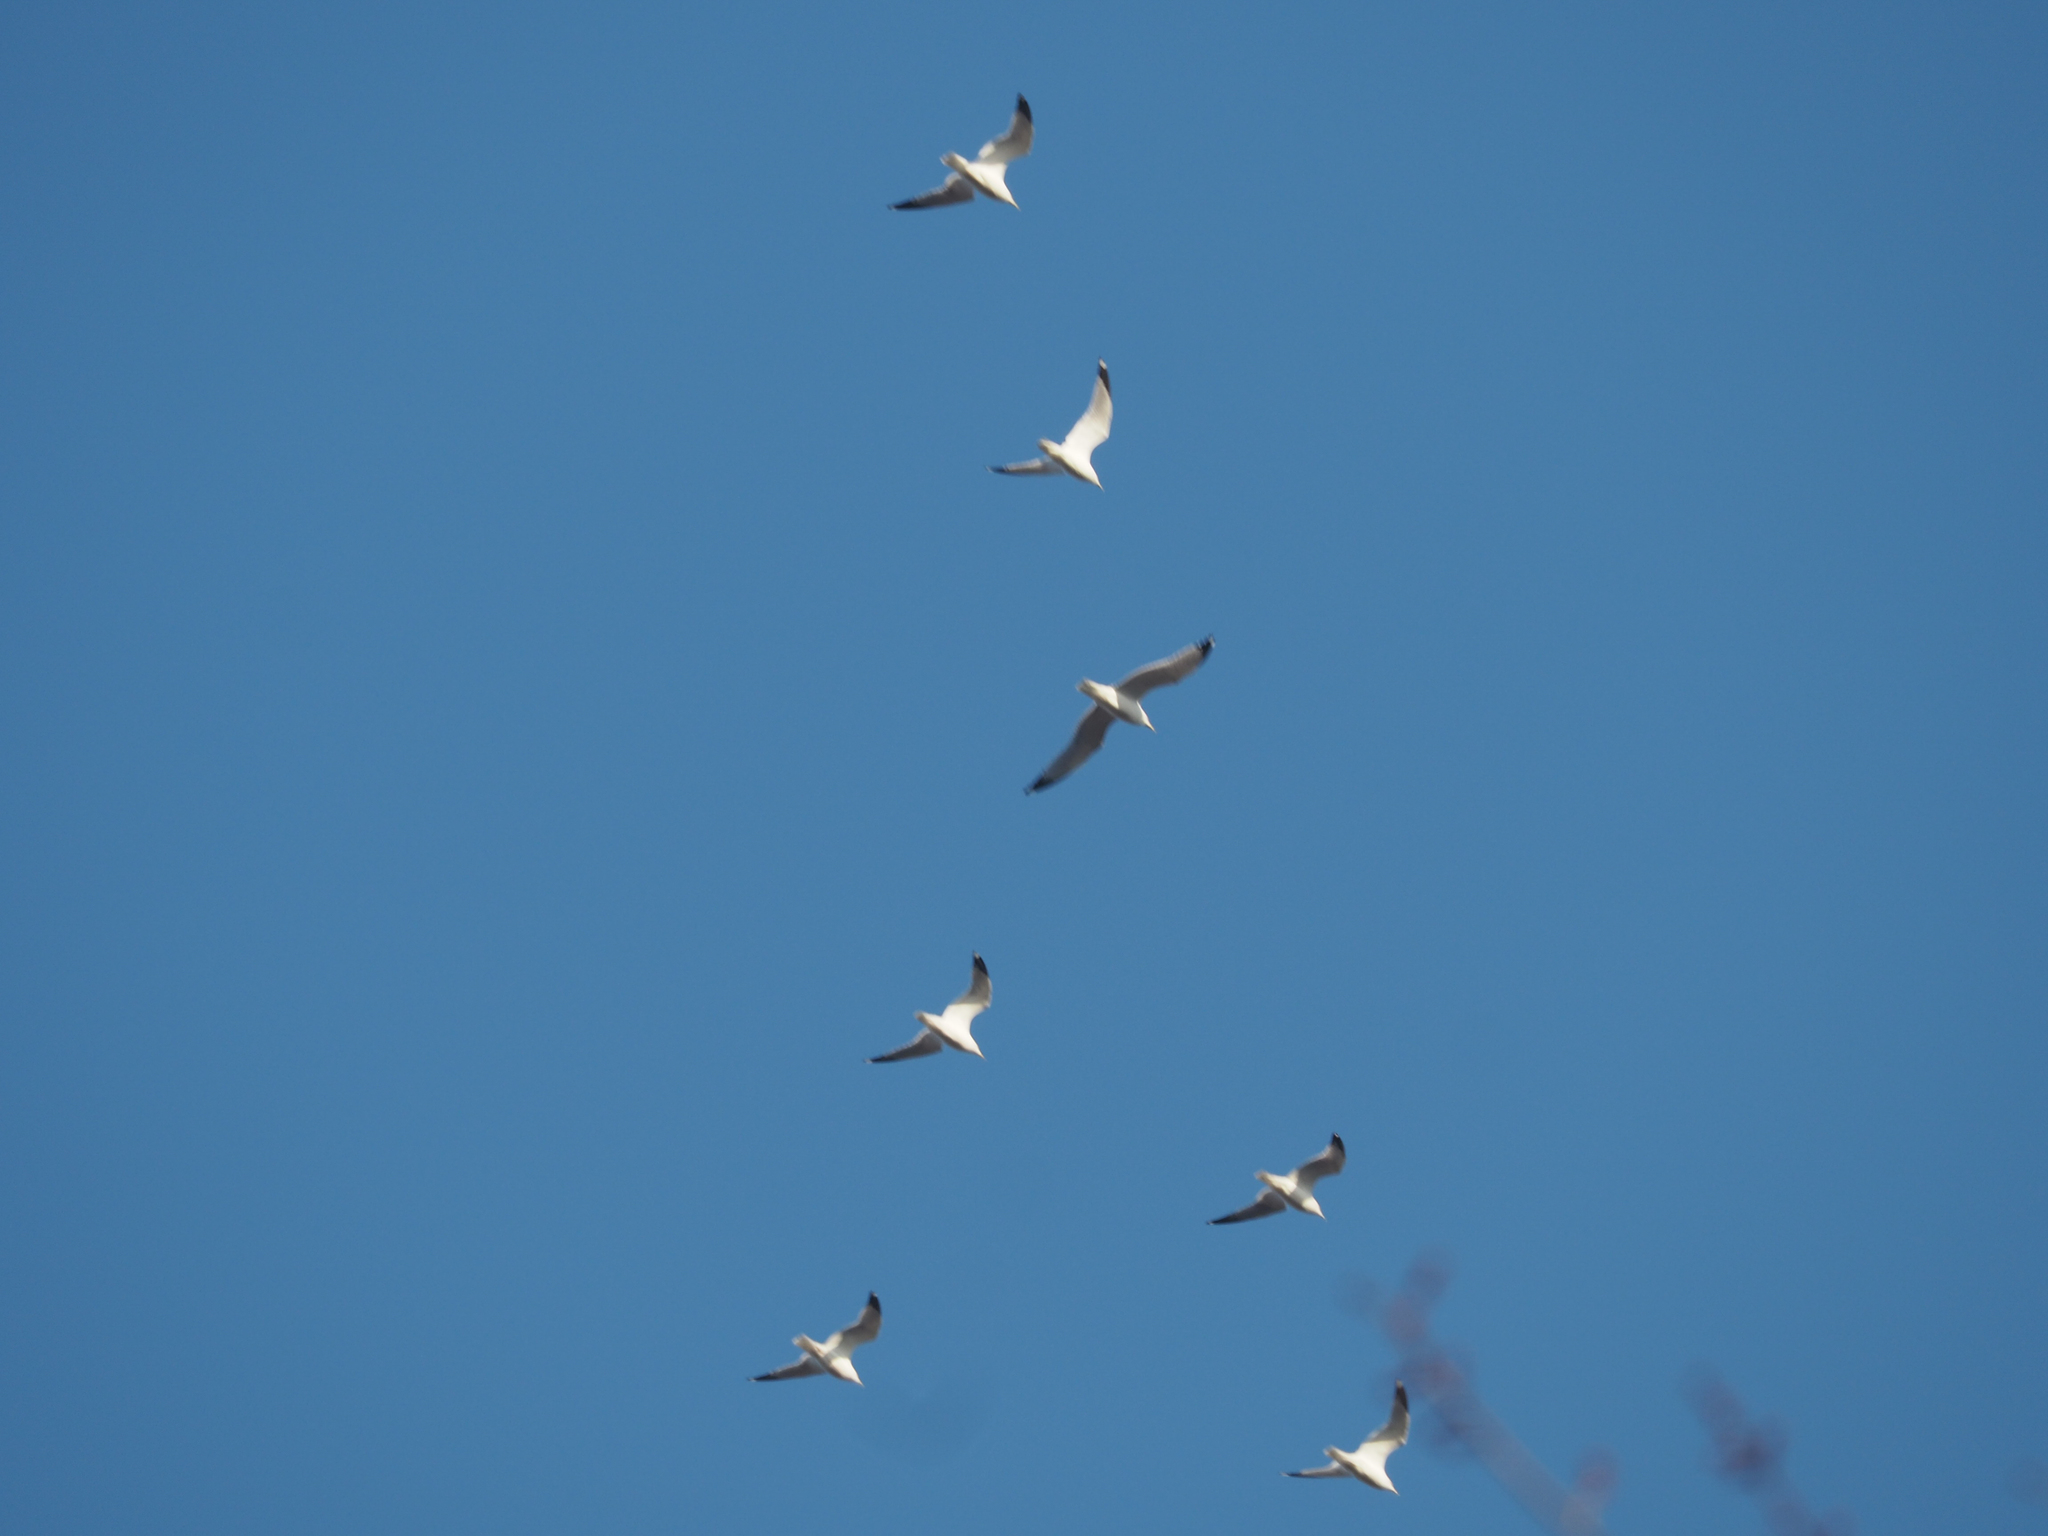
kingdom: Animalia
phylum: Chordata
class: Aves
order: Charadriiformes
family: Laridae
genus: Larus
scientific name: Larus delawarensis
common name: Ring-billed gull
